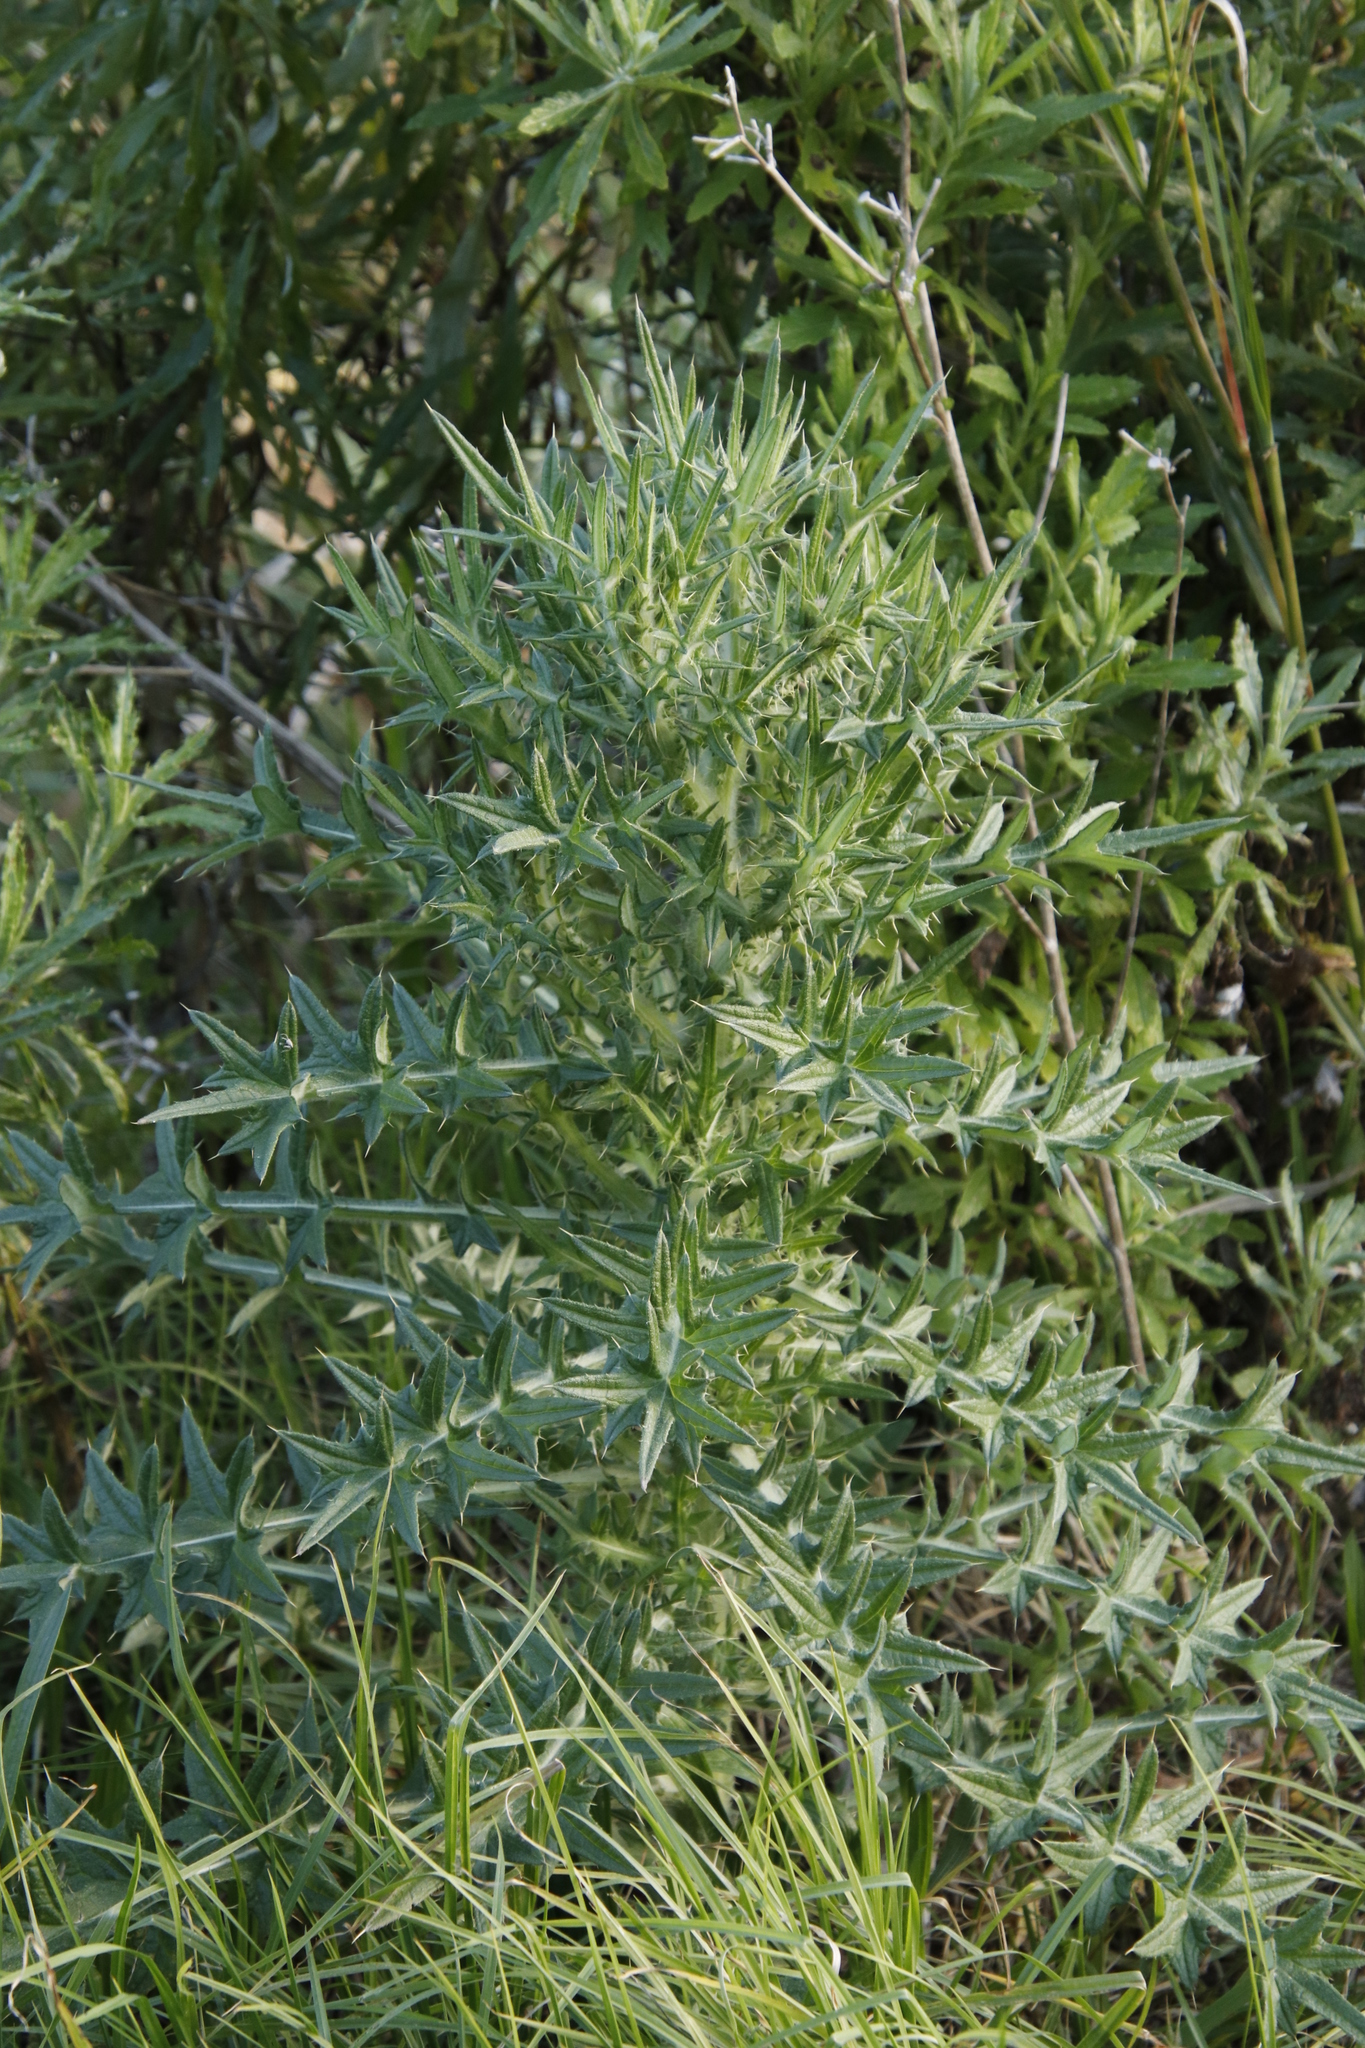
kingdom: Plantae
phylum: Tracheophyta
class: Magnoliopsida
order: Asterales
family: Asteraceae
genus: Cirsium
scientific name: Cirsium vulgare
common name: Bull thistle
